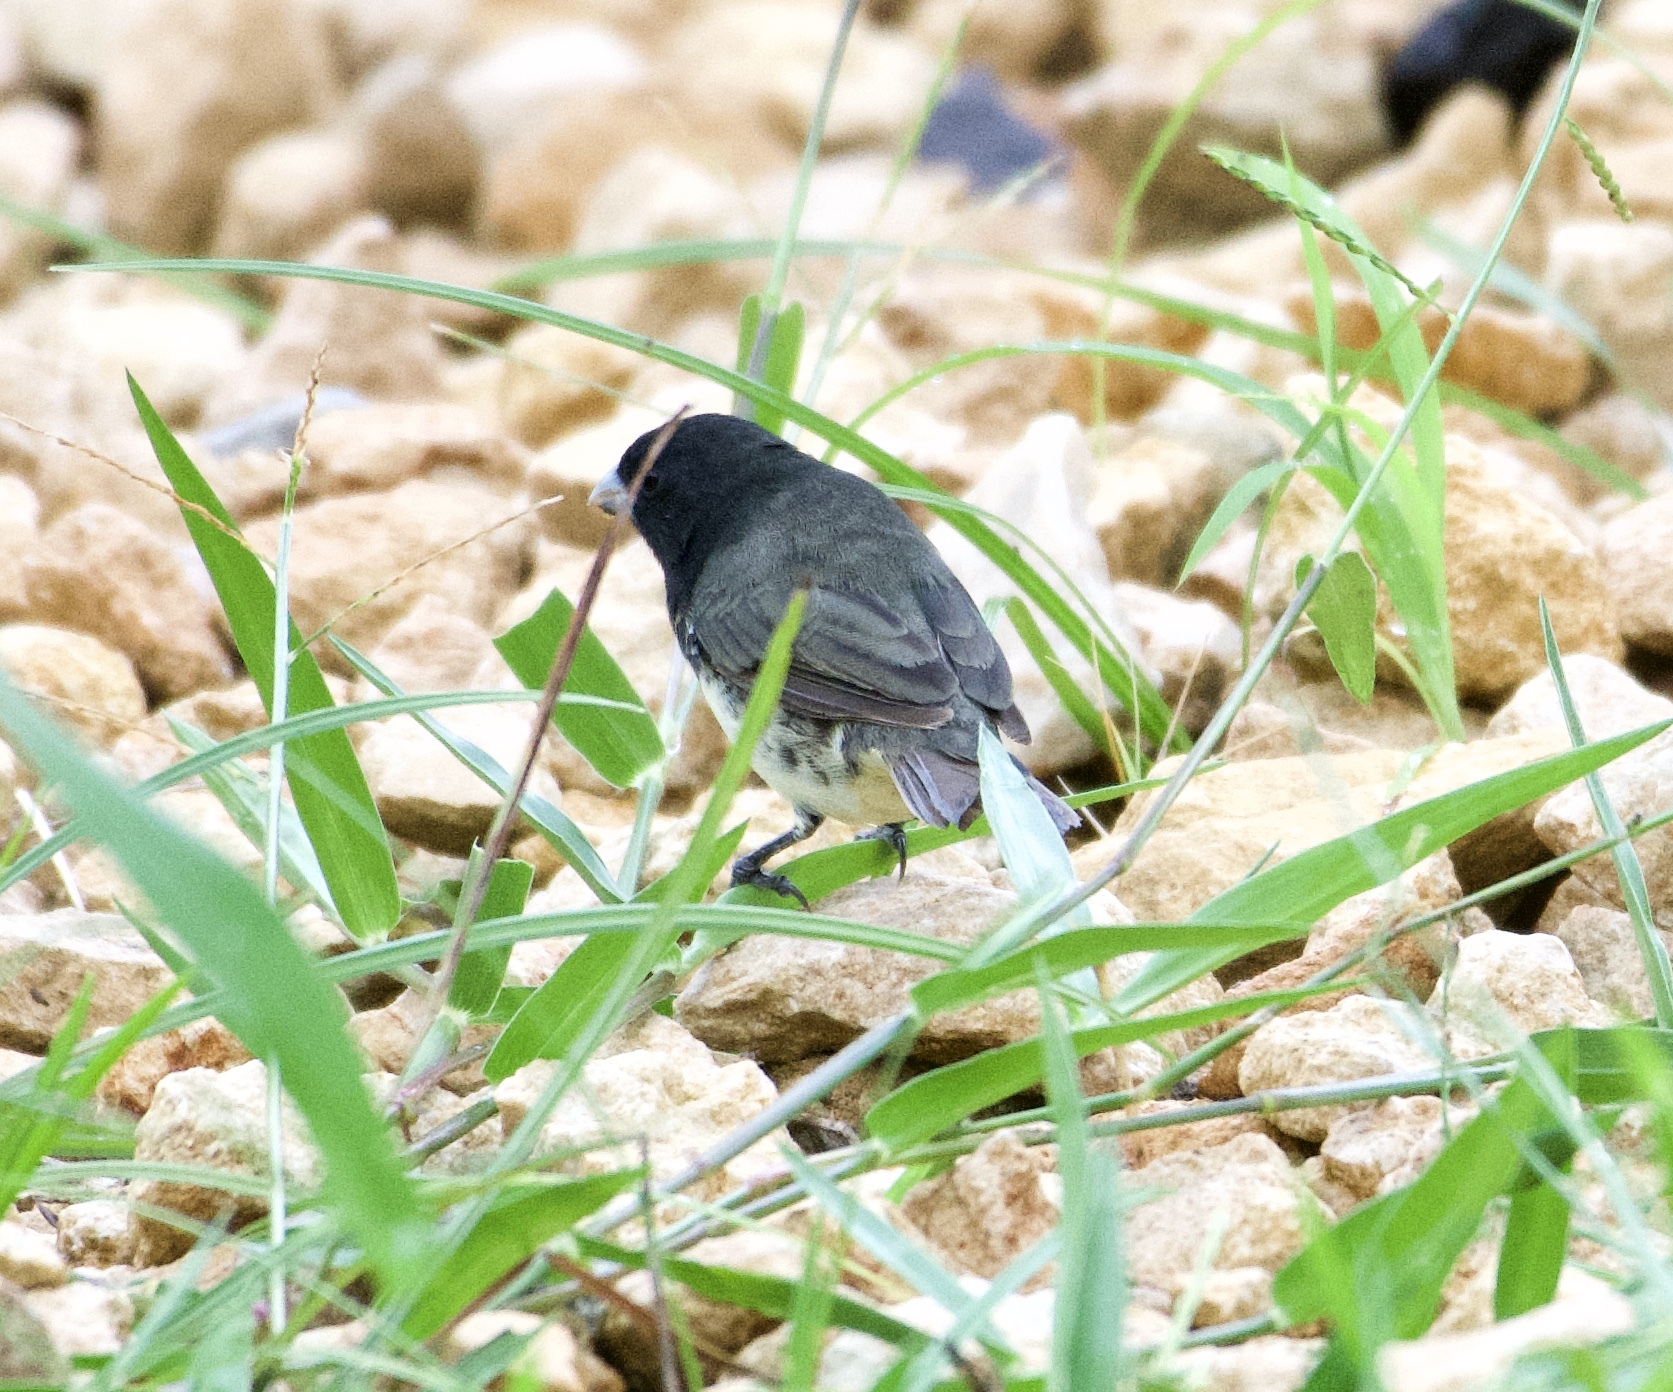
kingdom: Animalia
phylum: Chordata
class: Aves
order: Passeriformes
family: Thraupidae
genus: Sporophila
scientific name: Sporophila nigricollis
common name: Yellow-bellied seedeater
